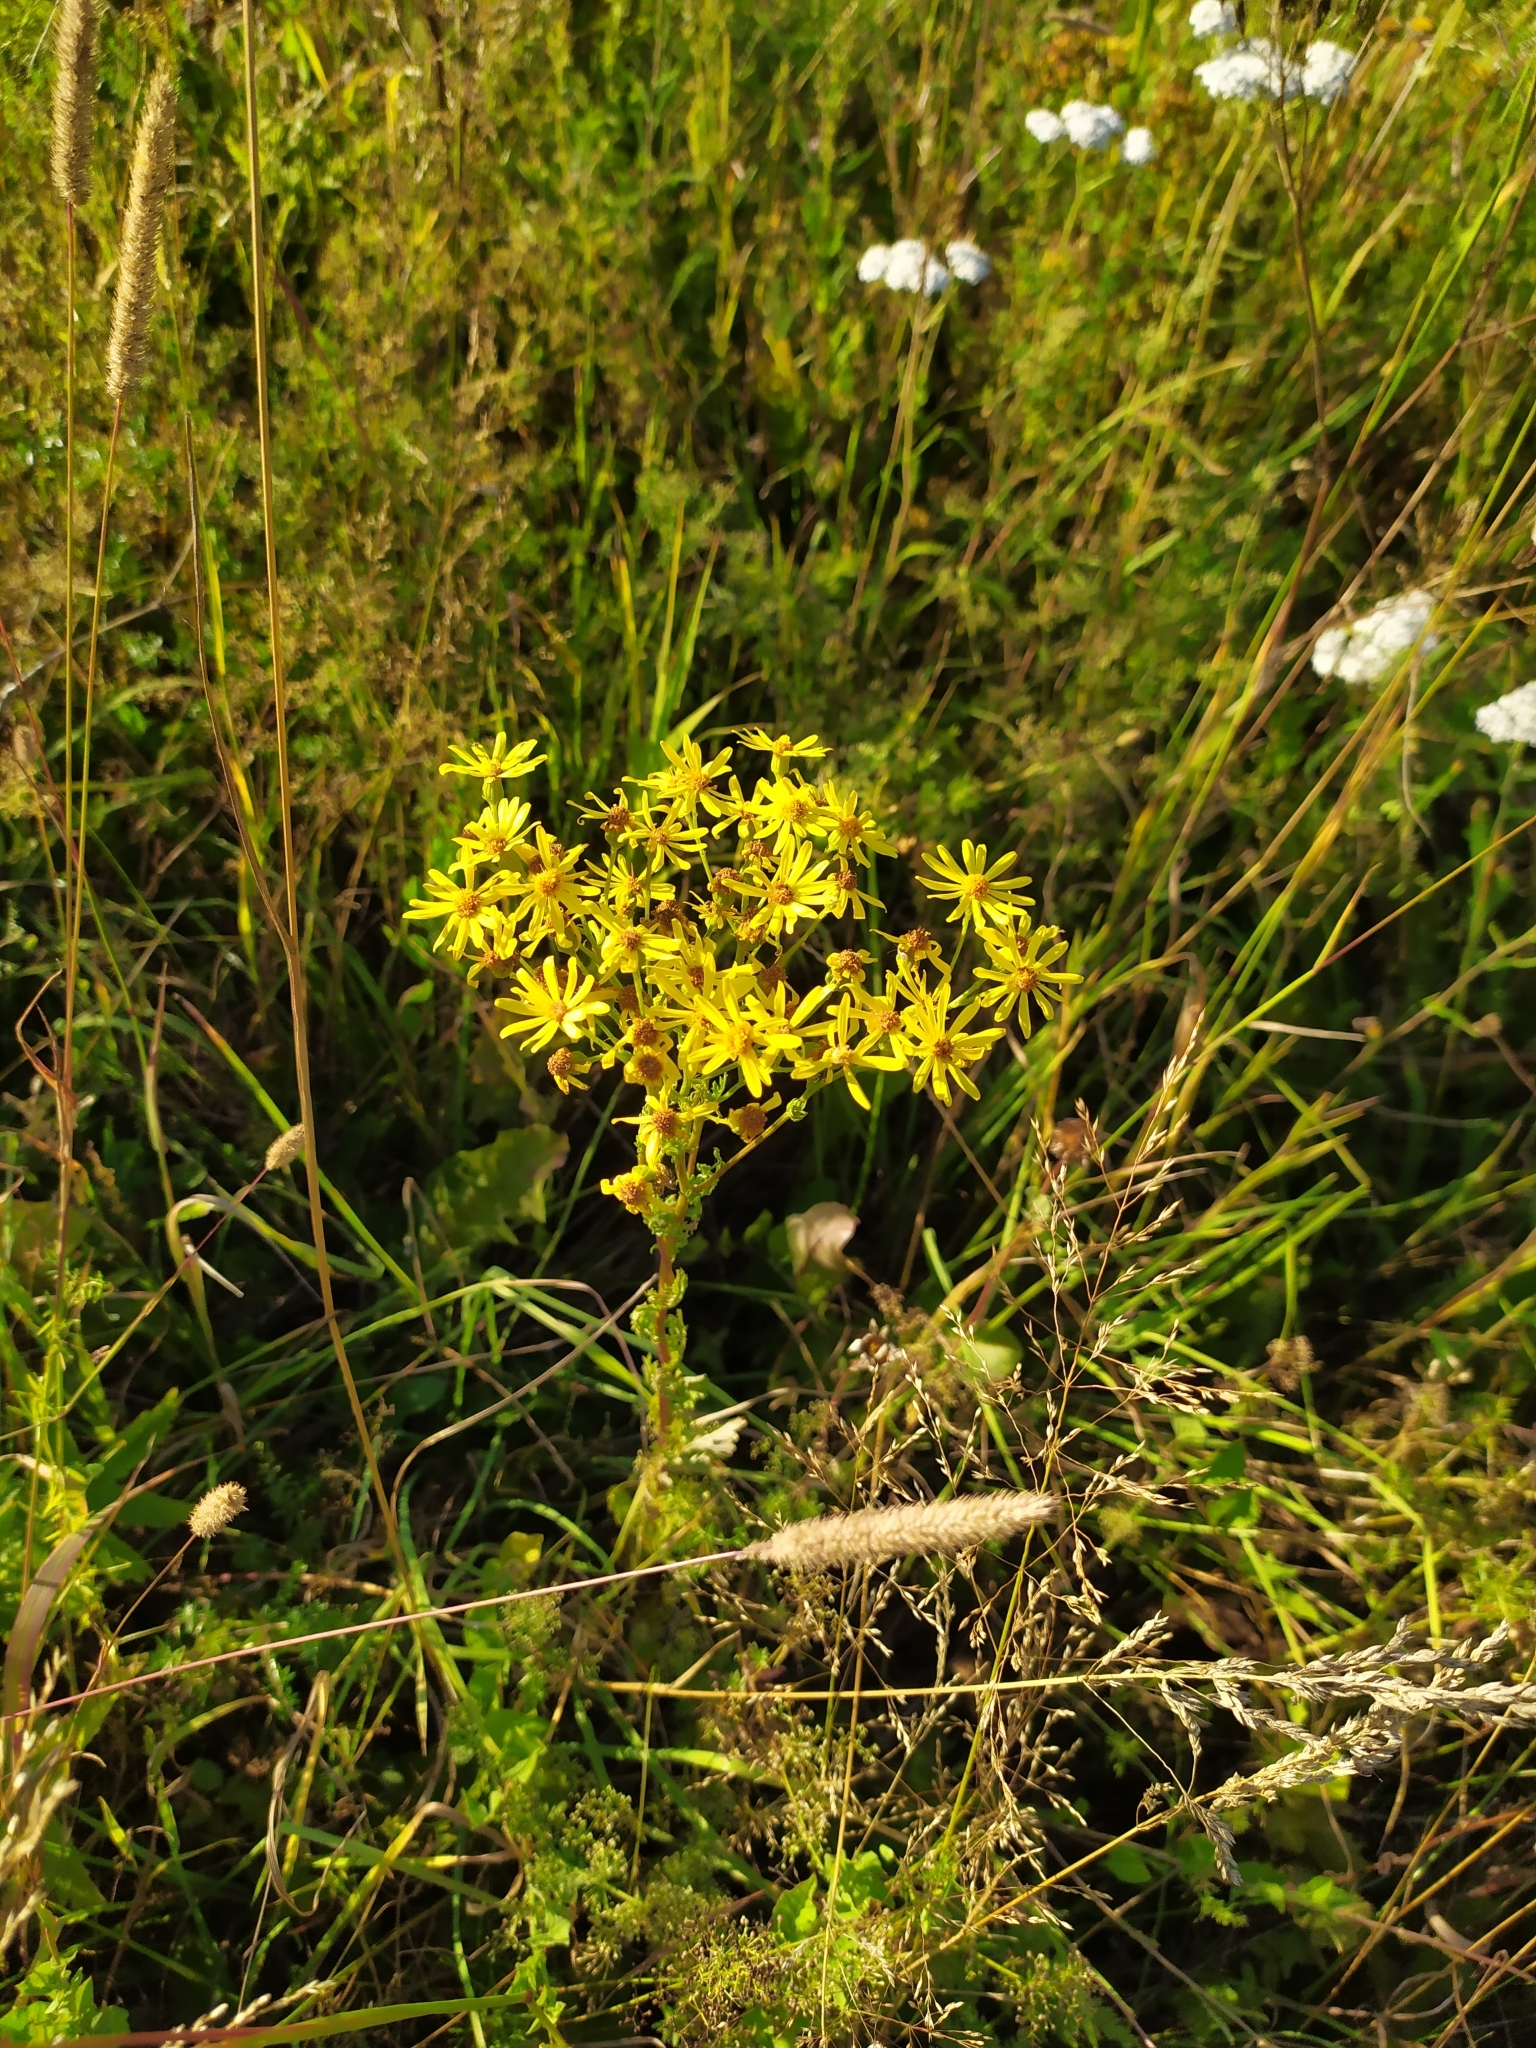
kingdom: Plantae
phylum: Tracheophyta
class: Magnoliopsida
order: Asterales
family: Asteraceae
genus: Jacobaea
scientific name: Jacobaea vulgaris
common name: Stinking willie
